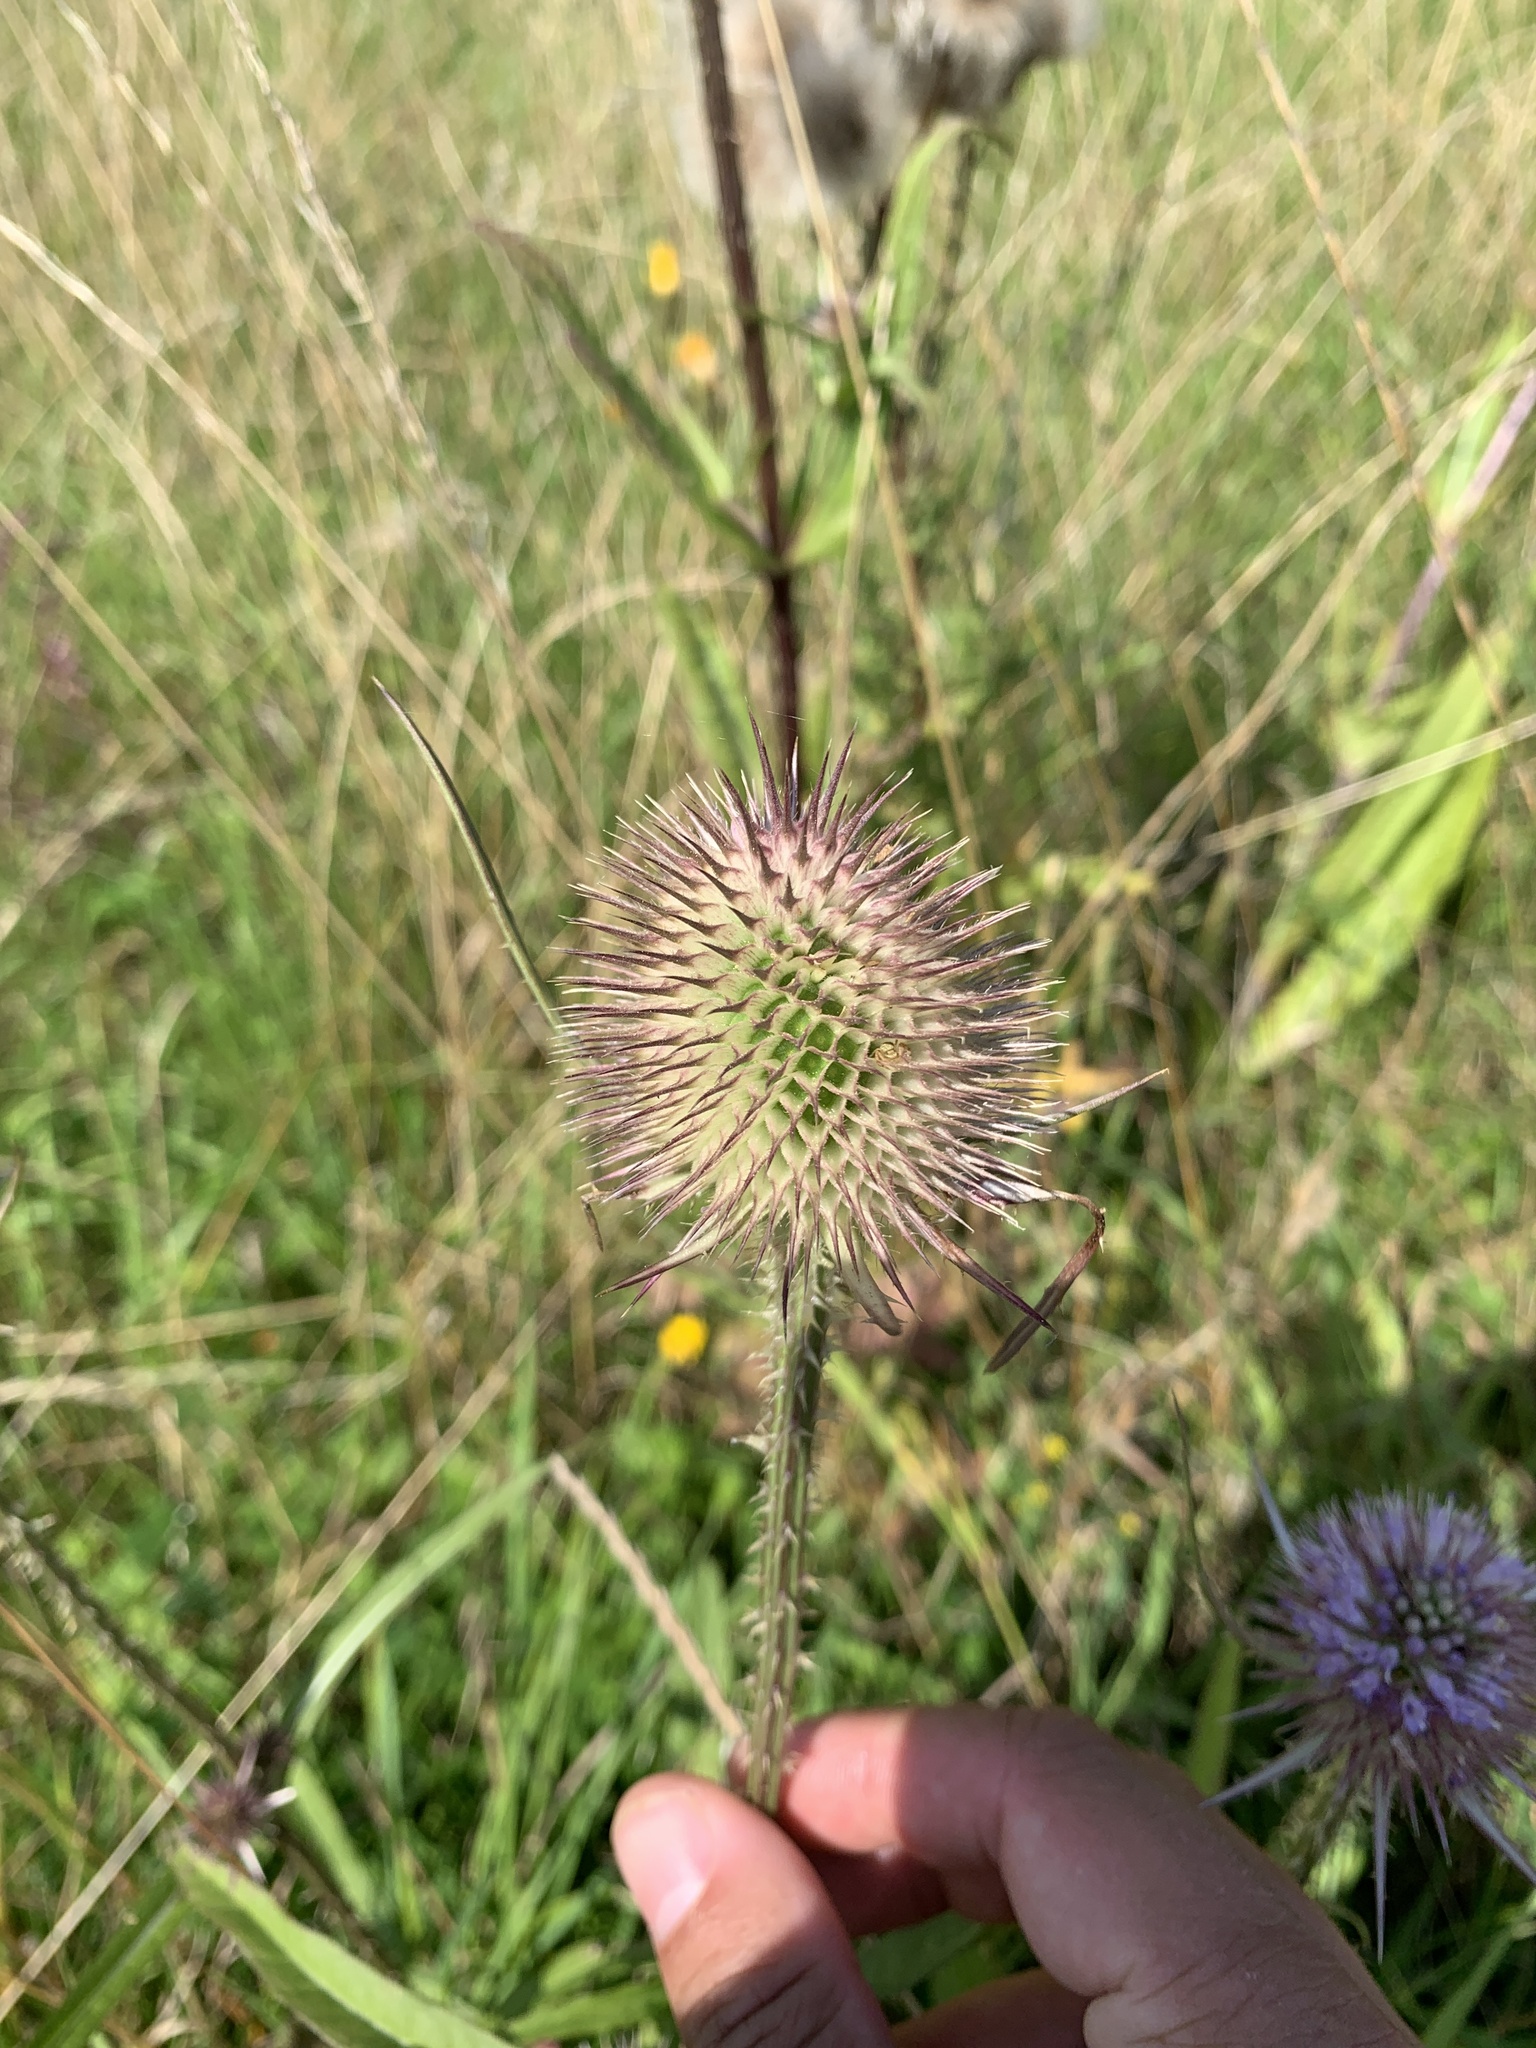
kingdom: Plantae
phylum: Tracheophyta
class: Magnoliopsida
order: Dipsacales
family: Caprifoliaceae
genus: Dipsacus
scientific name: Dipsacus fullonum
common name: Teasel
